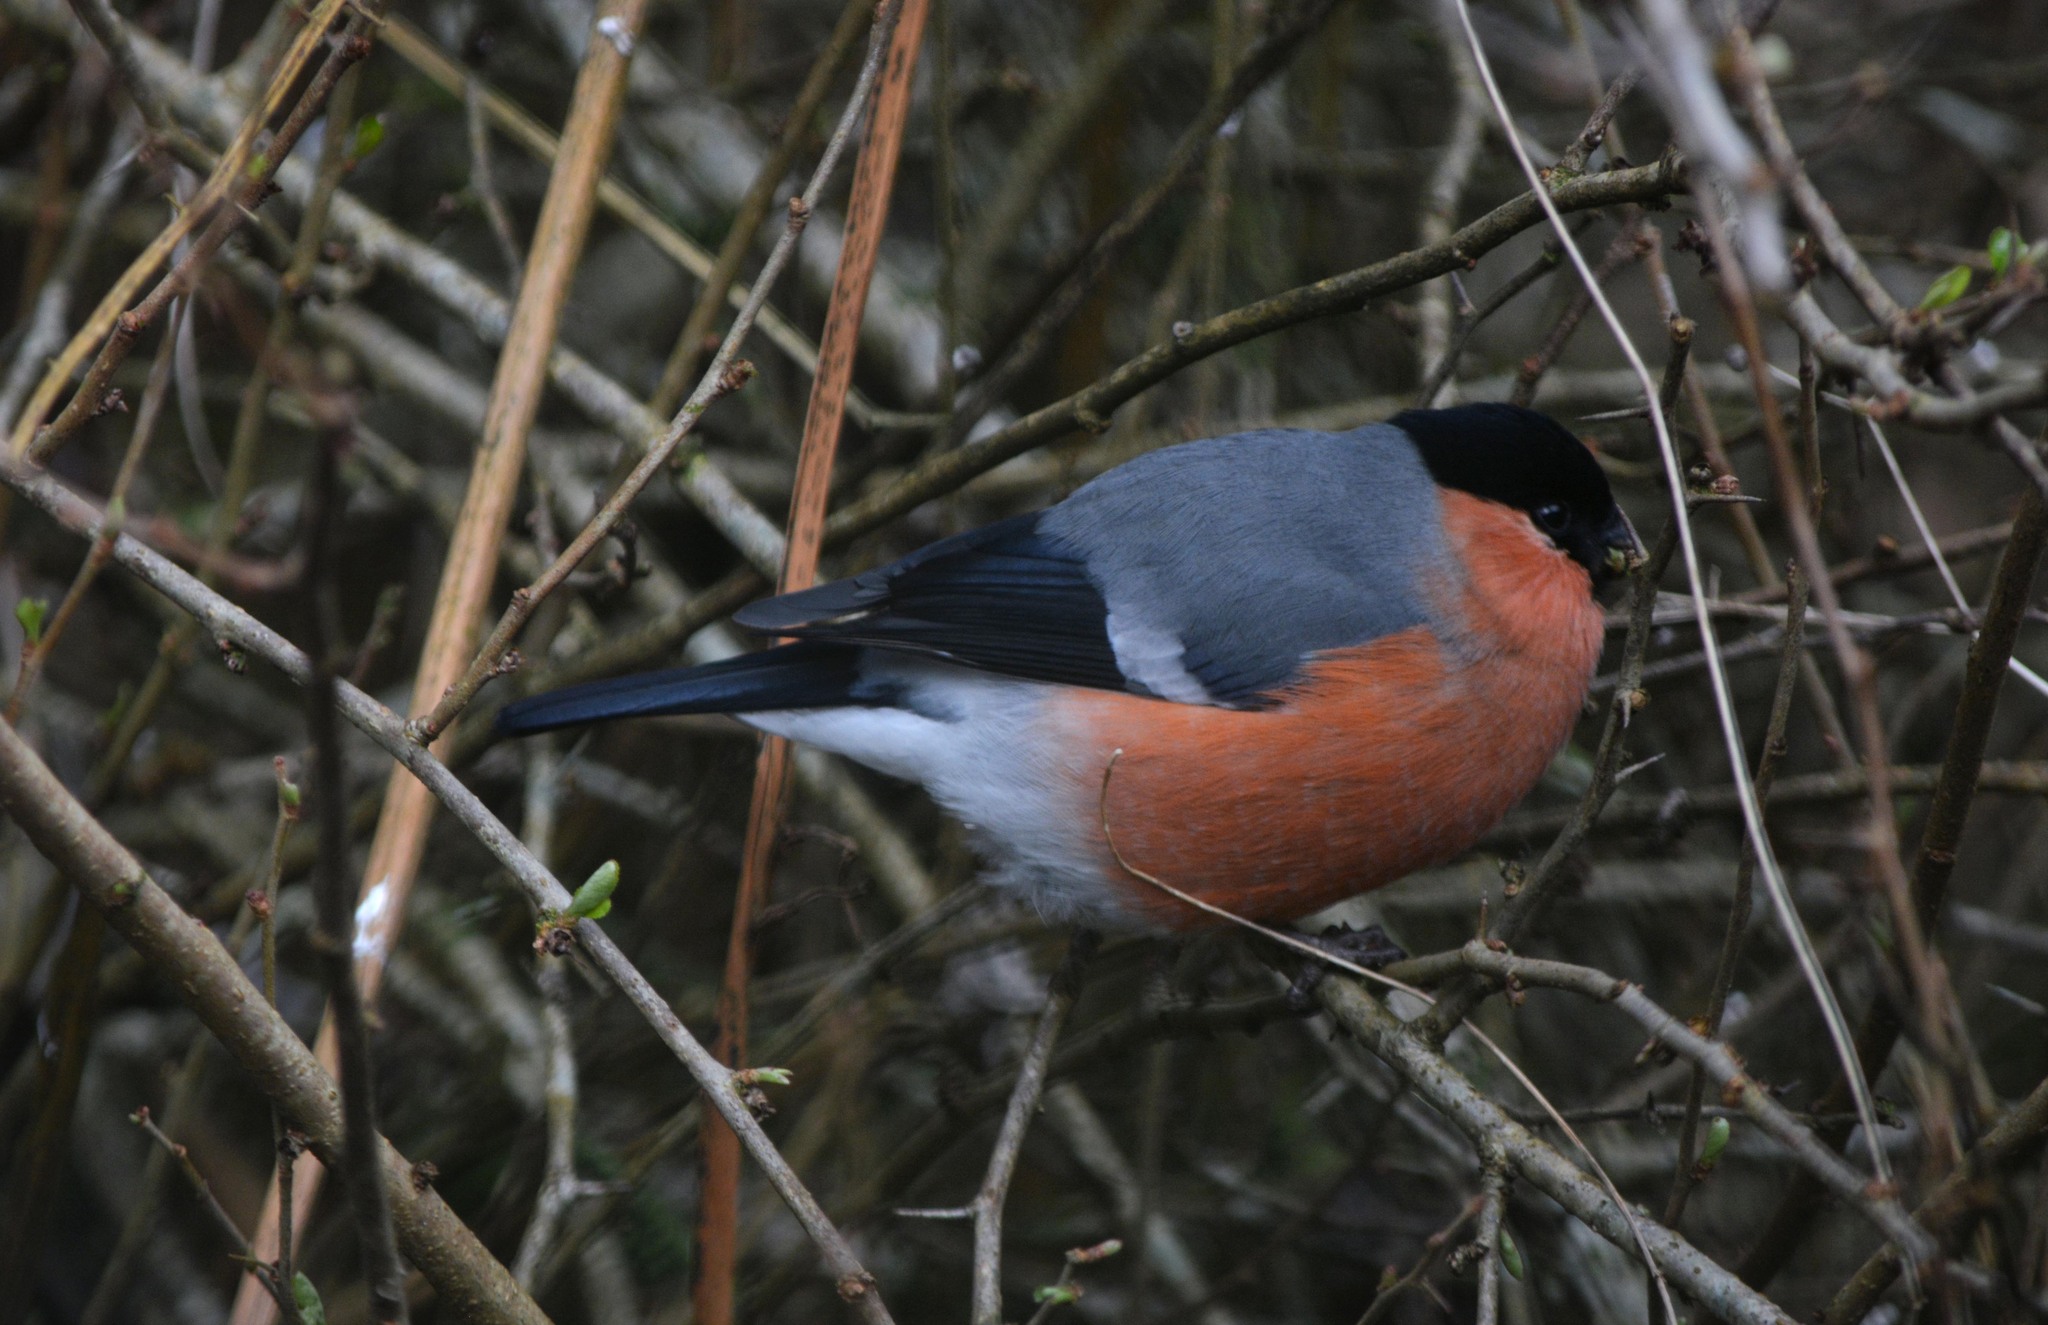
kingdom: Animalia
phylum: Chordata
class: Aves
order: Passeriformes
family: Fringillidae
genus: Pyrrhula
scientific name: Pyrrhula pyrrhula
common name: Eurasian bullfinch
